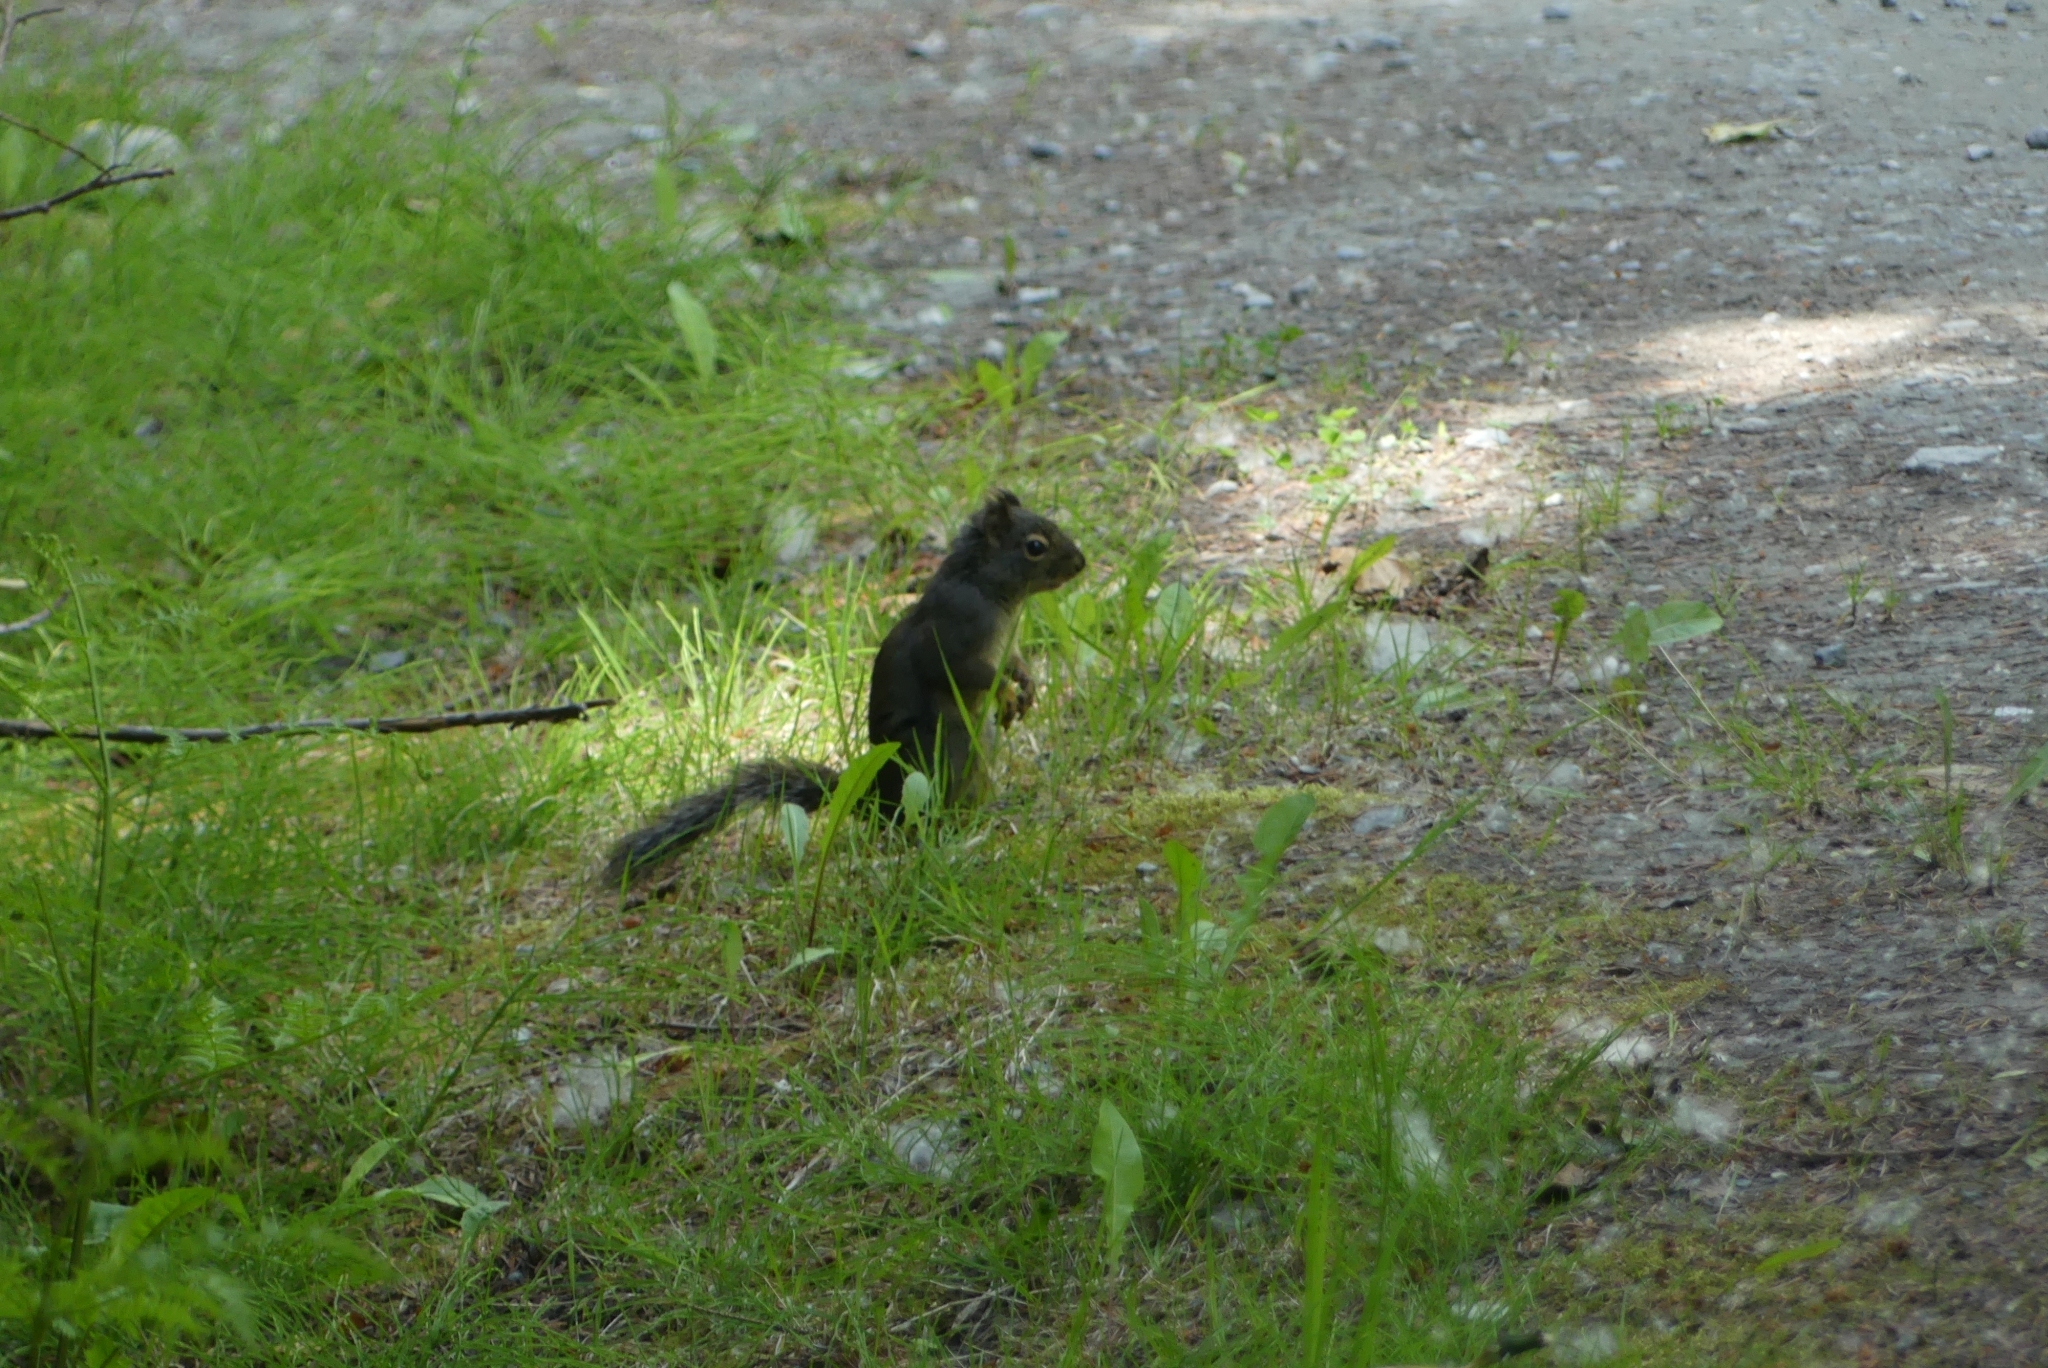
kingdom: Animalia
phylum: Chordata
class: Mammalia
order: Rodentia
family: Sciuridae
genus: Tamiasciurus
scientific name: Tamiasciurus douglasii
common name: Douglas's squirrel
